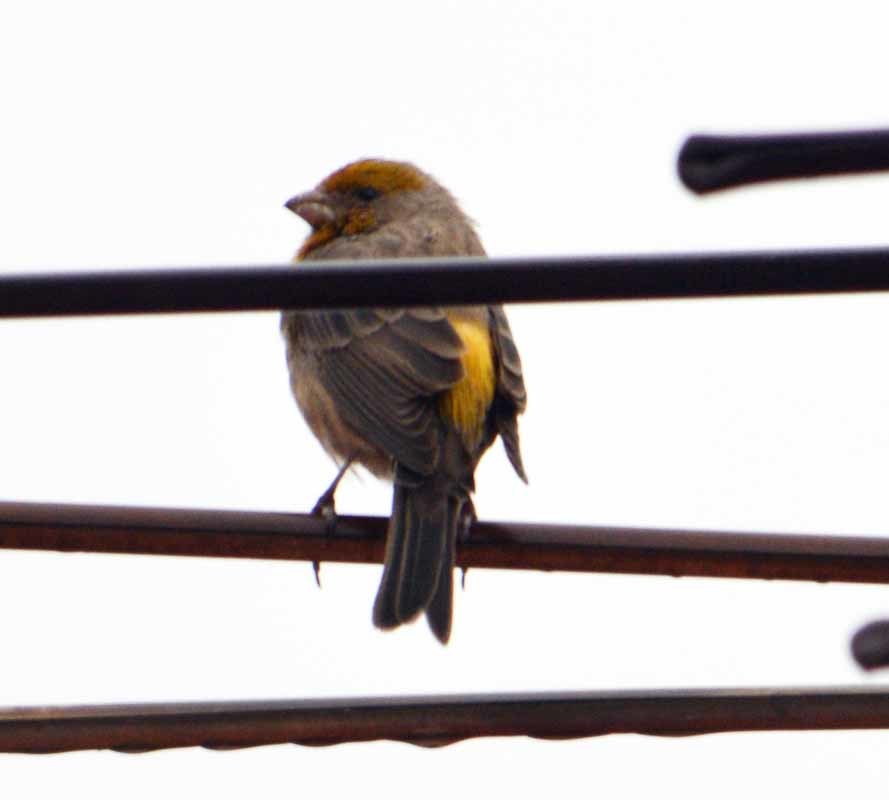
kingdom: Animalia
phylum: Chordata
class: Aves
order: Passeriformes
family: Fringillidae
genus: Haemorhous
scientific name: Haemorhous mexicanus
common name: House finch
